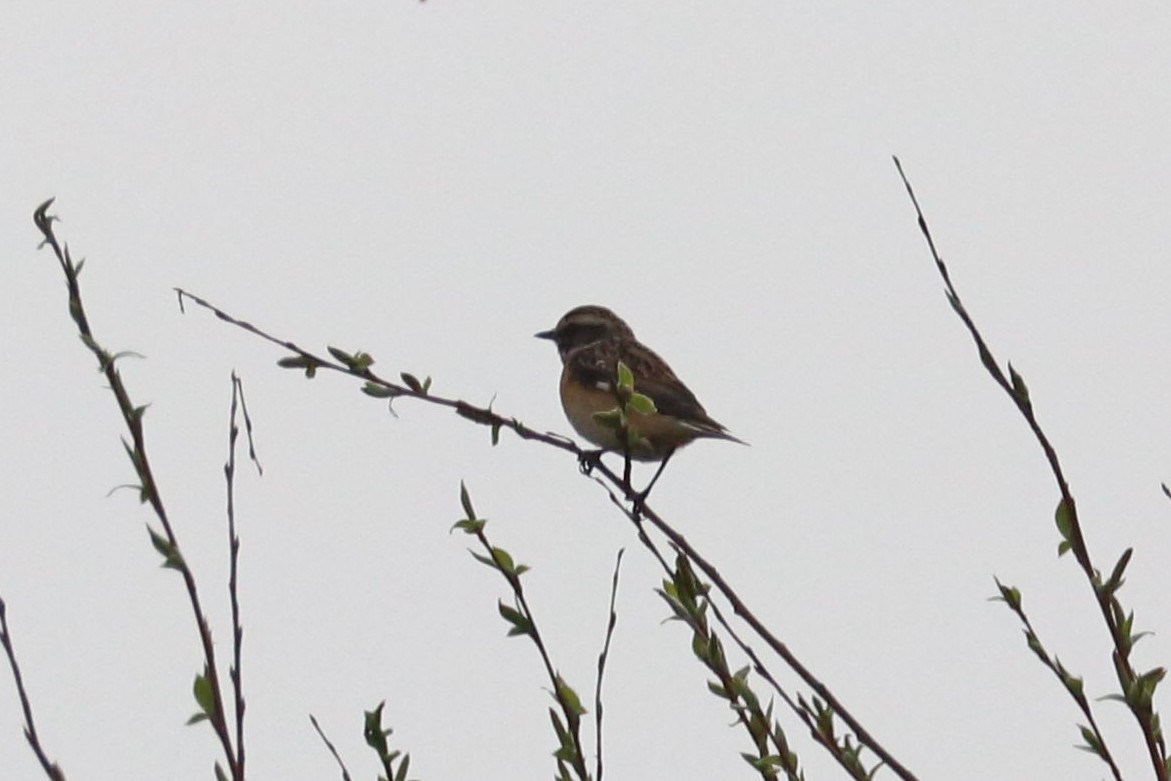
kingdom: Animalia
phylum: Chordata
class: Aves
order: Passeriformes
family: Muscicapidae
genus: Saxicola
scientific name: Saxicola rubetra
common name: Whinchat
